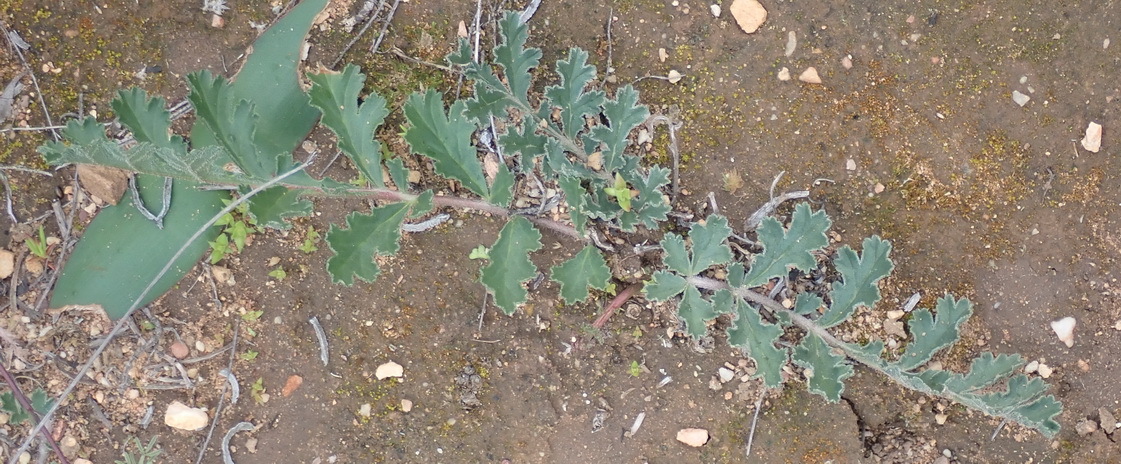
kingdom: Plantae
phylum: Tracheophyta
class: Magnoliopsida
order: Geraniales
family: Geraniaceae
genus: Pelargonium
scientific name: Pelargonium radulifolium
